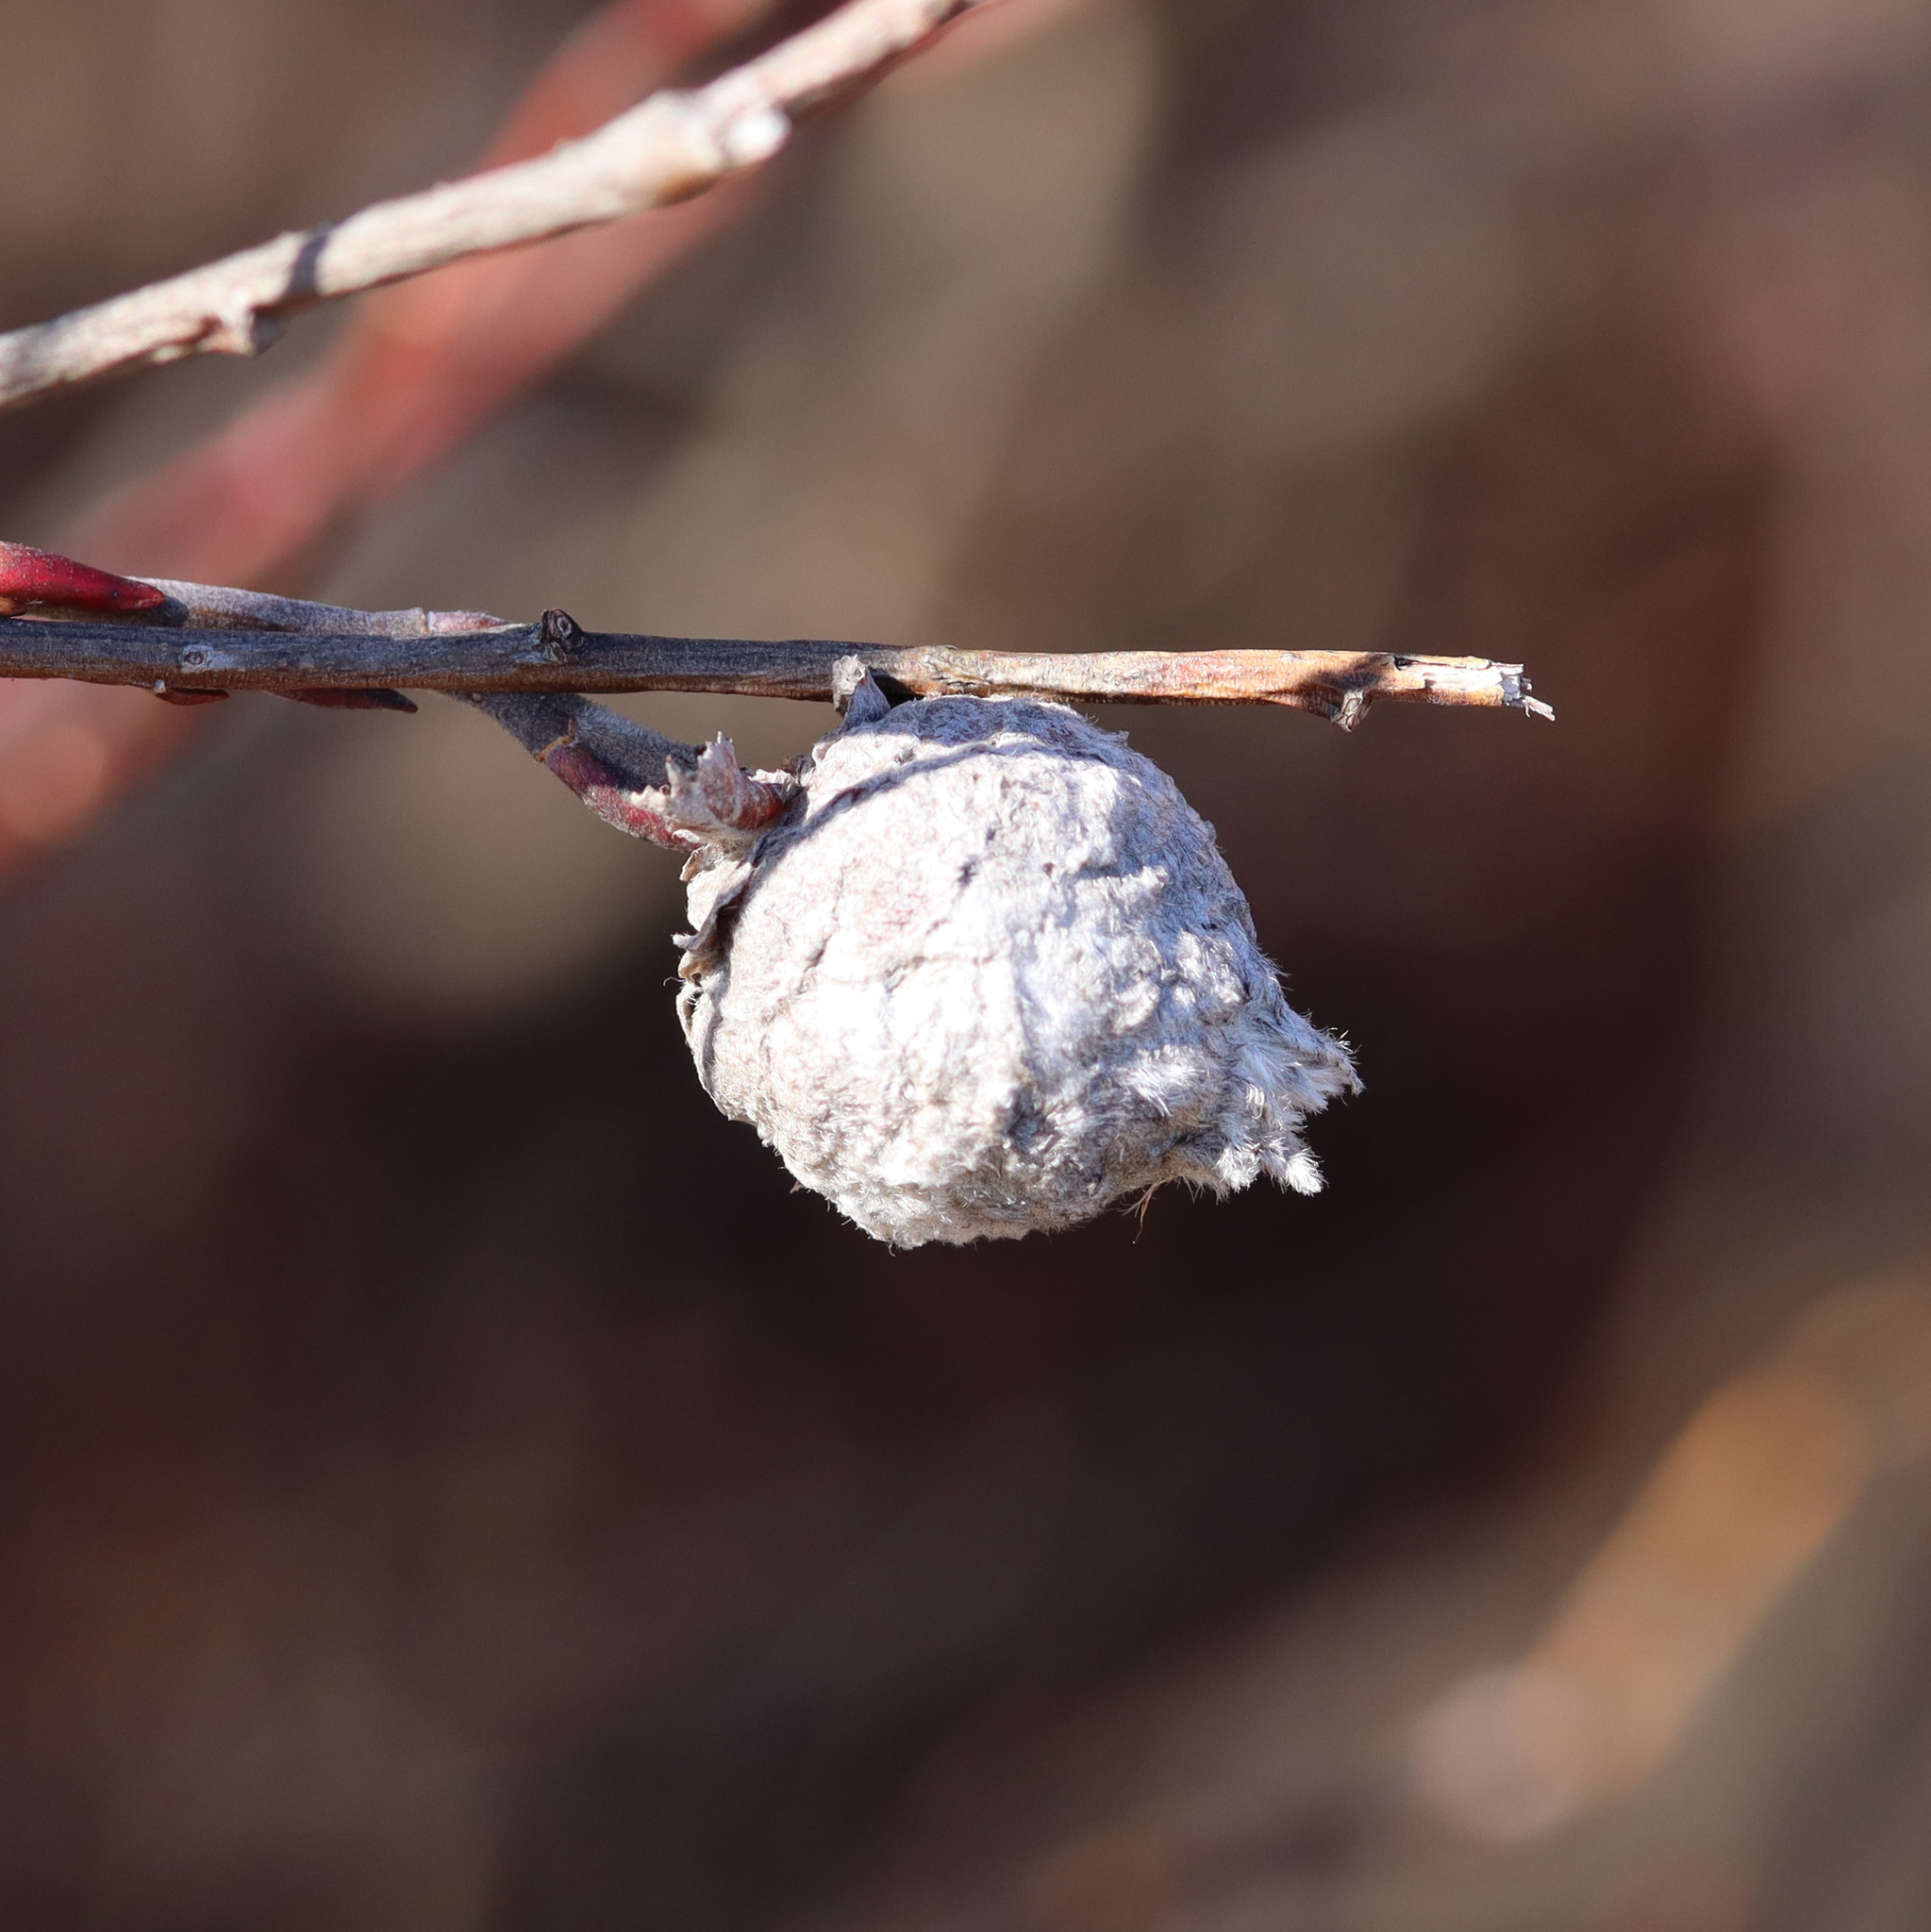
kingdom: Animalia
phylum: Arthropoda
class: Insecta
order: Diptera
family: Cecidomyiidae
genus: Rabdophaga
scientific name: Rabdophaga strobiloides
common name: Willow pinecone gall midge
